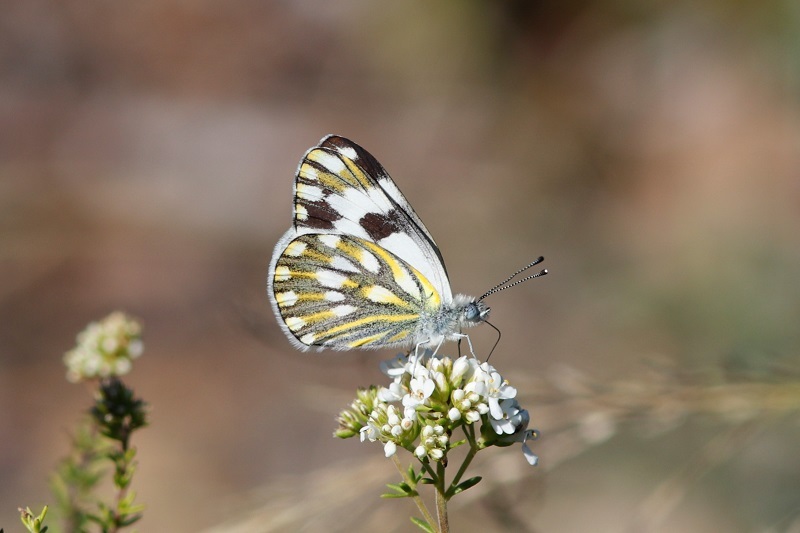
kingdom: Animalia
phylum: Arthropoda
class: Insecta
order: Lepidoptera
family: Pieridae
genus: Pontia
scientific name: Pontia helice
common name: Meadow white
